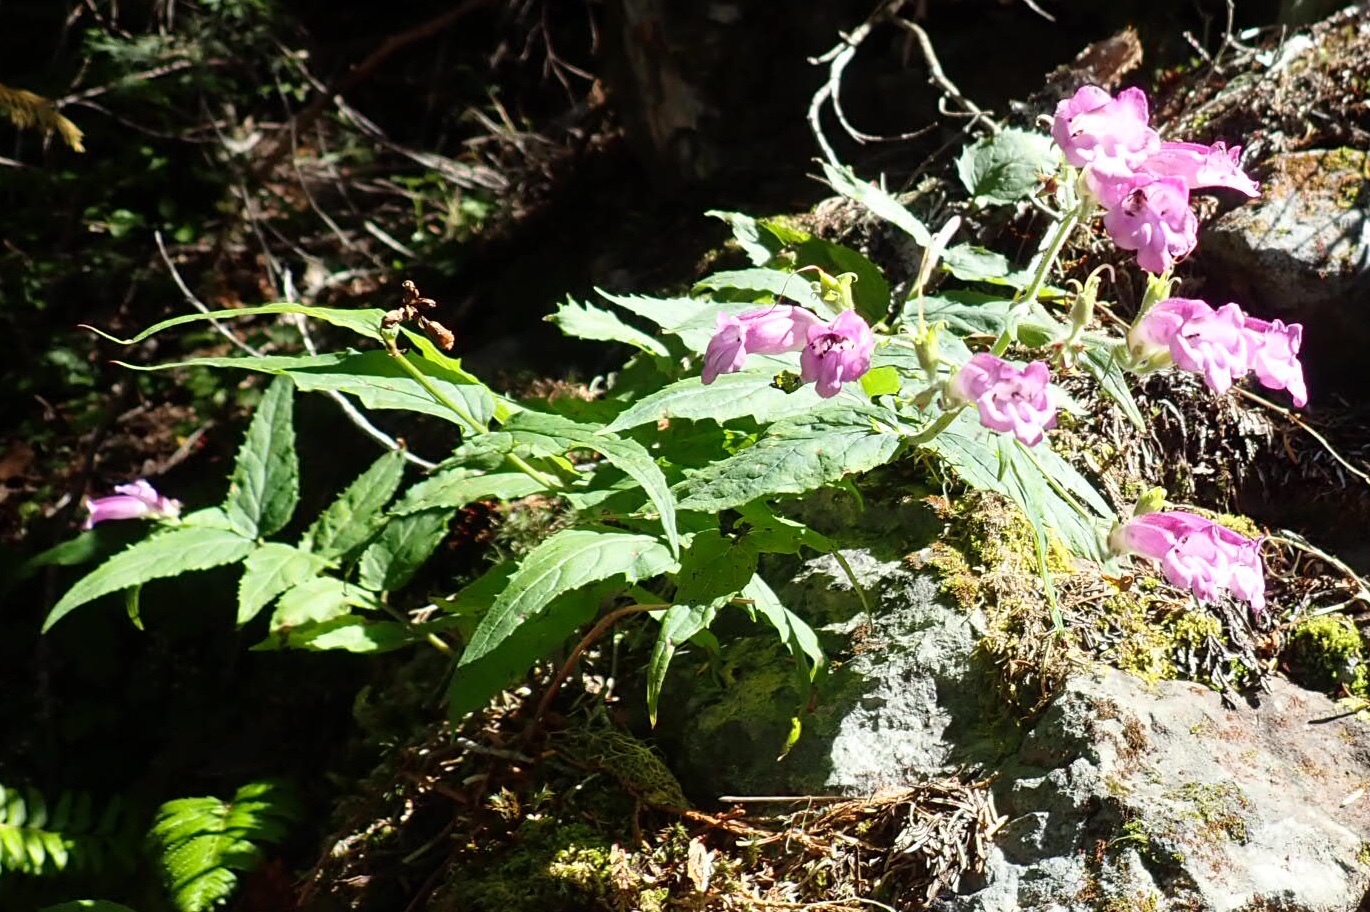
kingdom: Plantae
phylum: Tracheophyta
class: Magnoliopsida
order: Lamiales
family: Plantaginaceae
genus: Nothochelone
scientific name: Nothochelone nemorosa
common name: Woodland beardtongue
